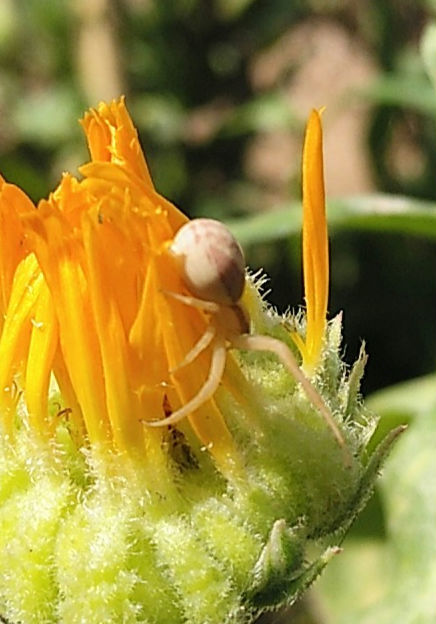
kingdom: Animalia
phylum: Arthropoda
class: Arachnida
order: Araneae
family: Thomisidae
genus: Runcinia
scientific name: Runcinia grammica
